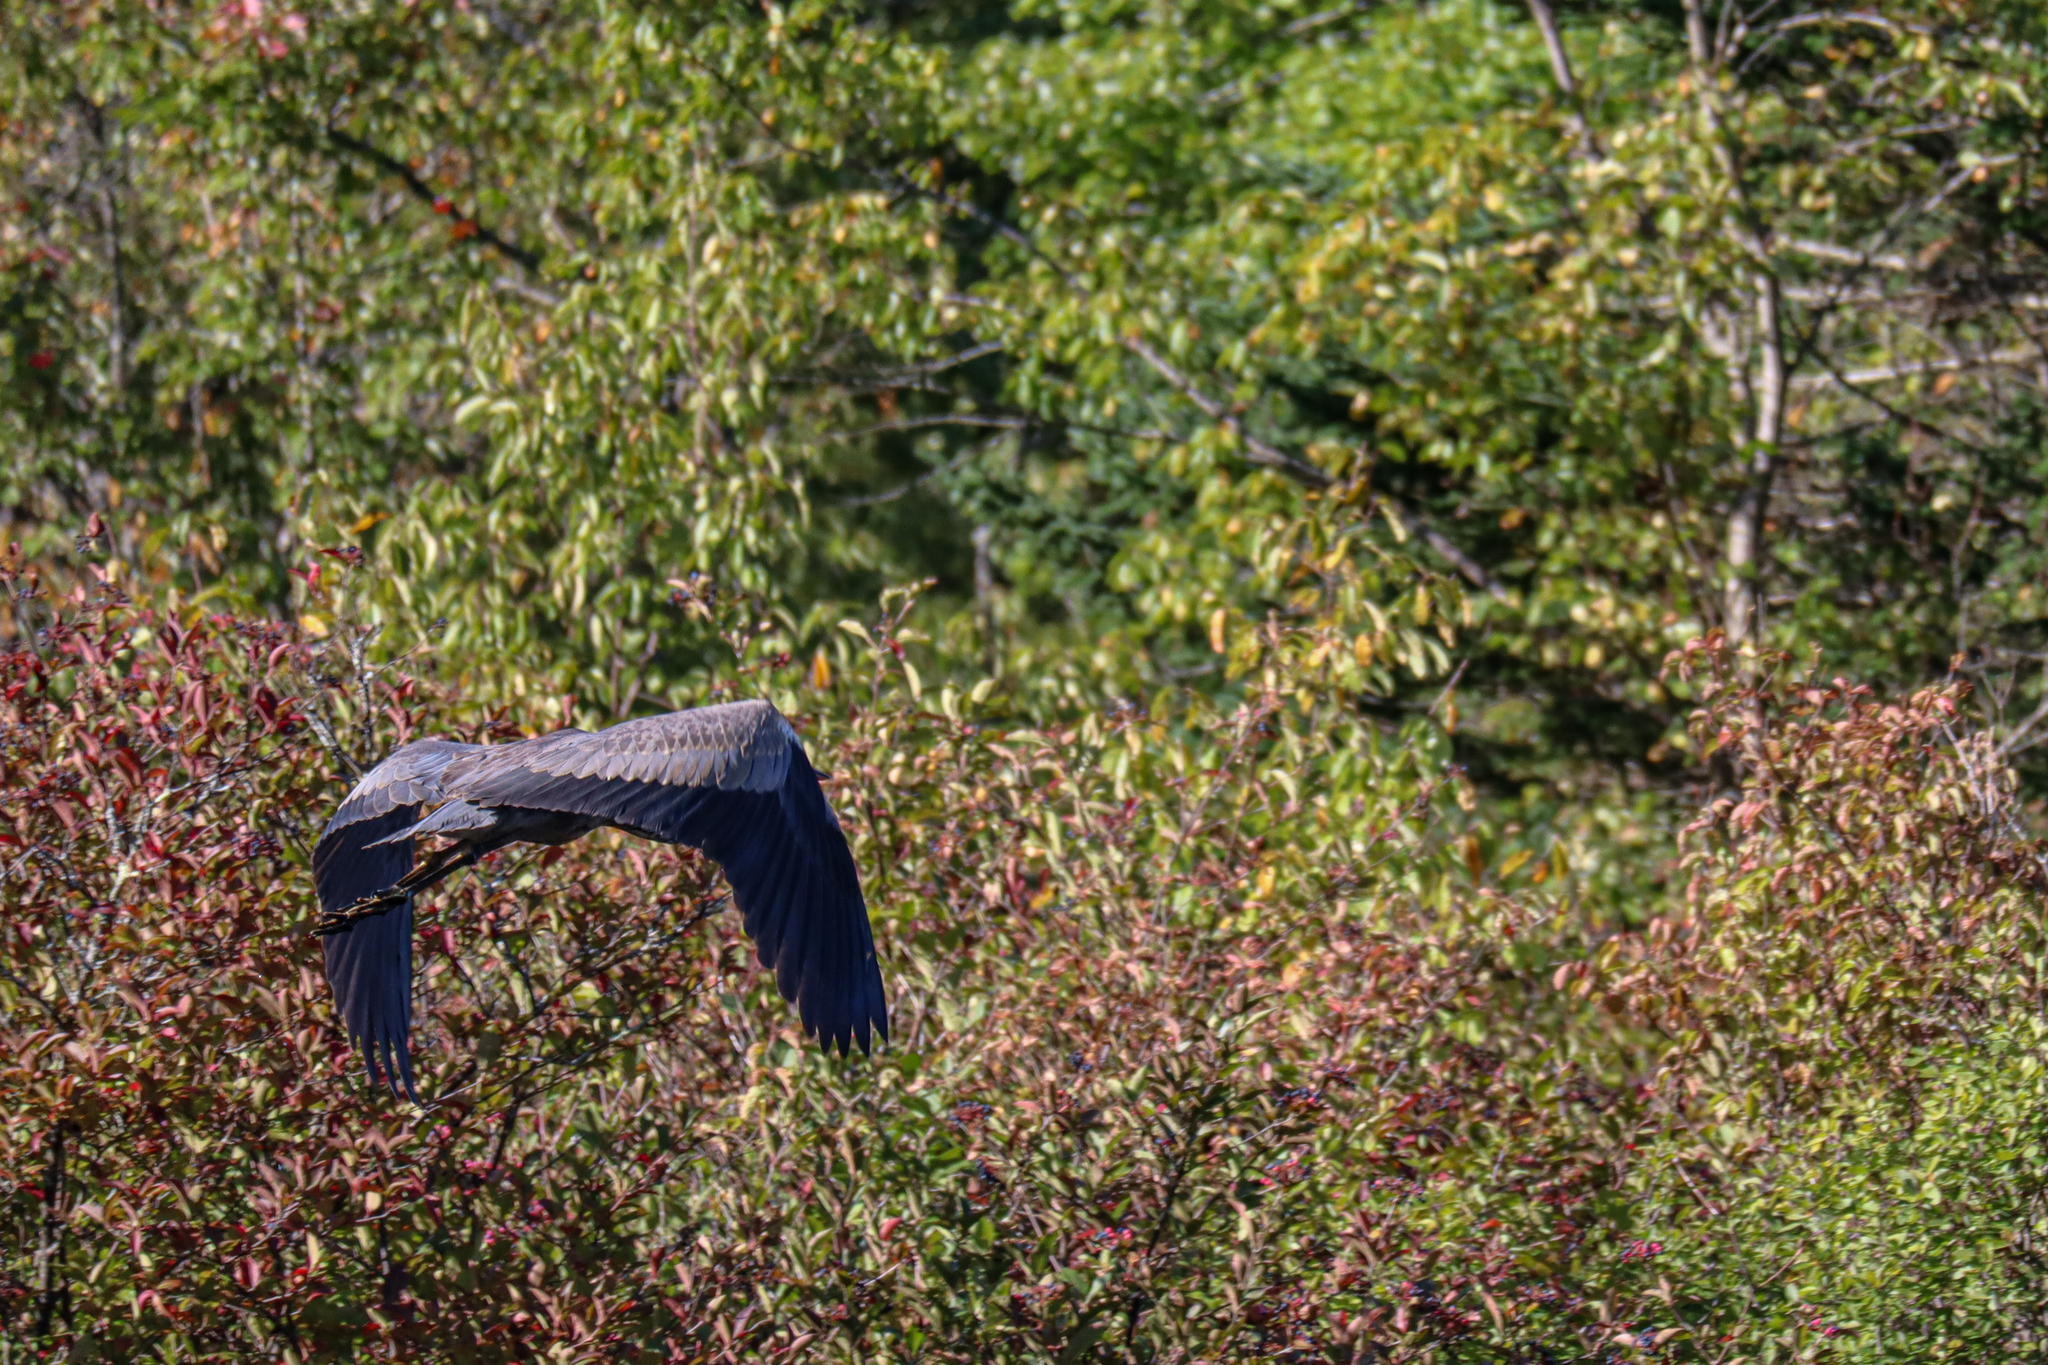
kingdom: Animalia
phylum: Chordata
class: Aves
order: Pelecaniformes
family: Ardeidae
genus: Ardea
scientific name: Ardea herodias
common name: Great blue heron
